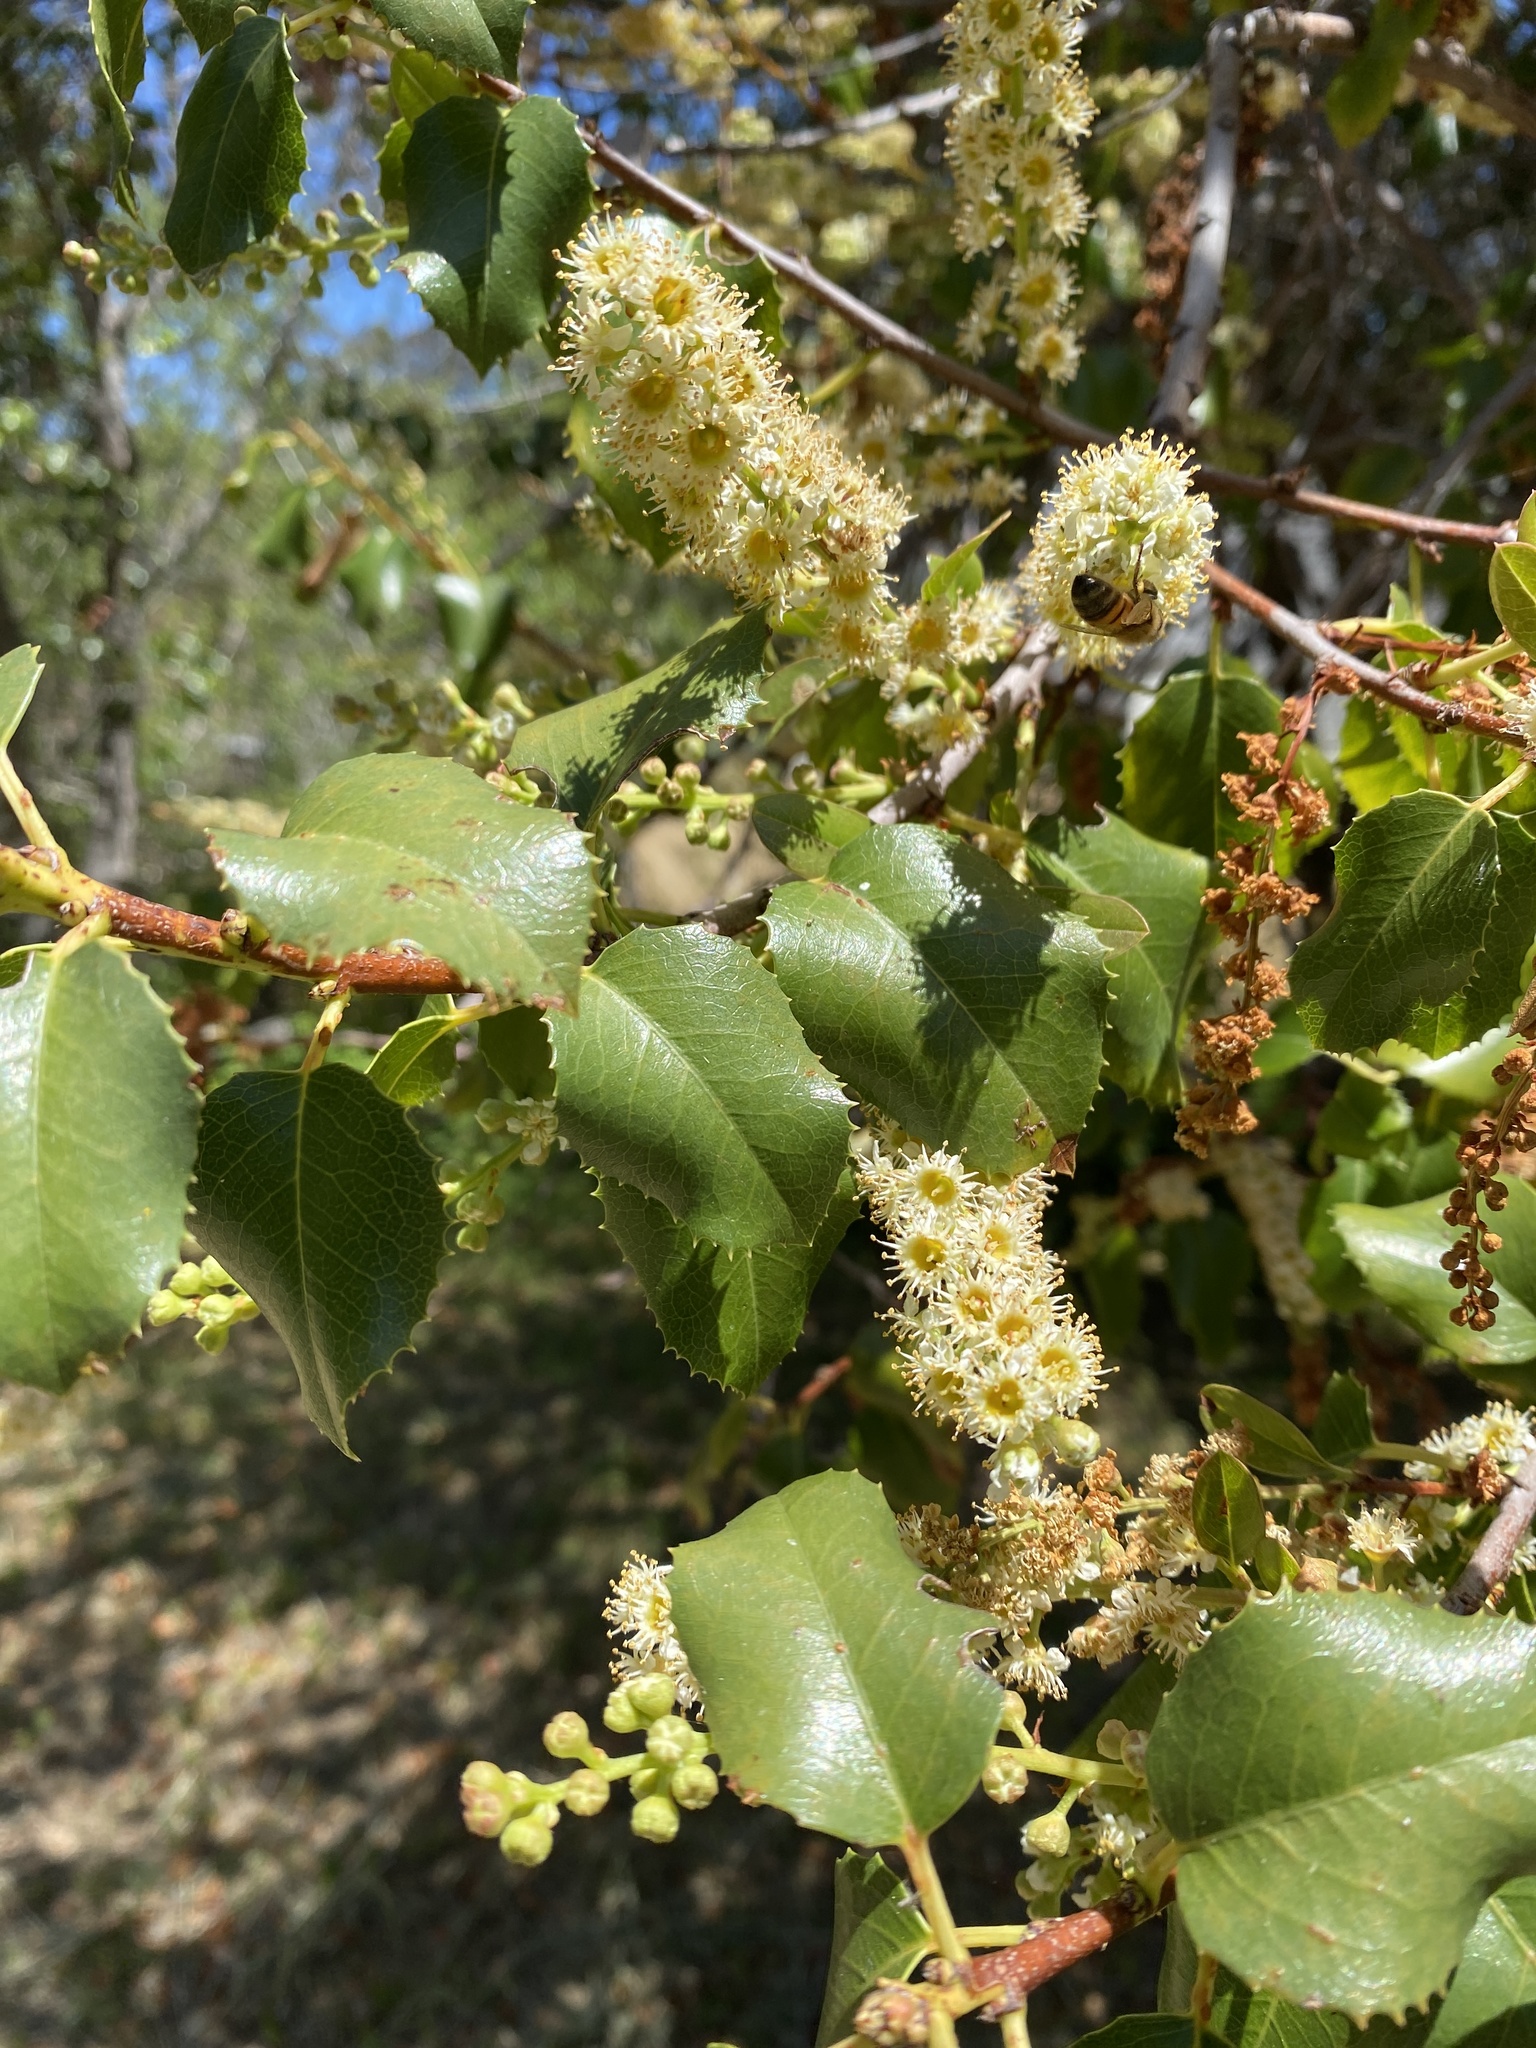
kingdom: Plantae
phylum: Tracheophyta
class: Magnoliopsida
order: Rosales
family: Rosaceae
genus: Prunus
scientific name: Prunus ilicifolia
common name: Hollyleaf cherry
